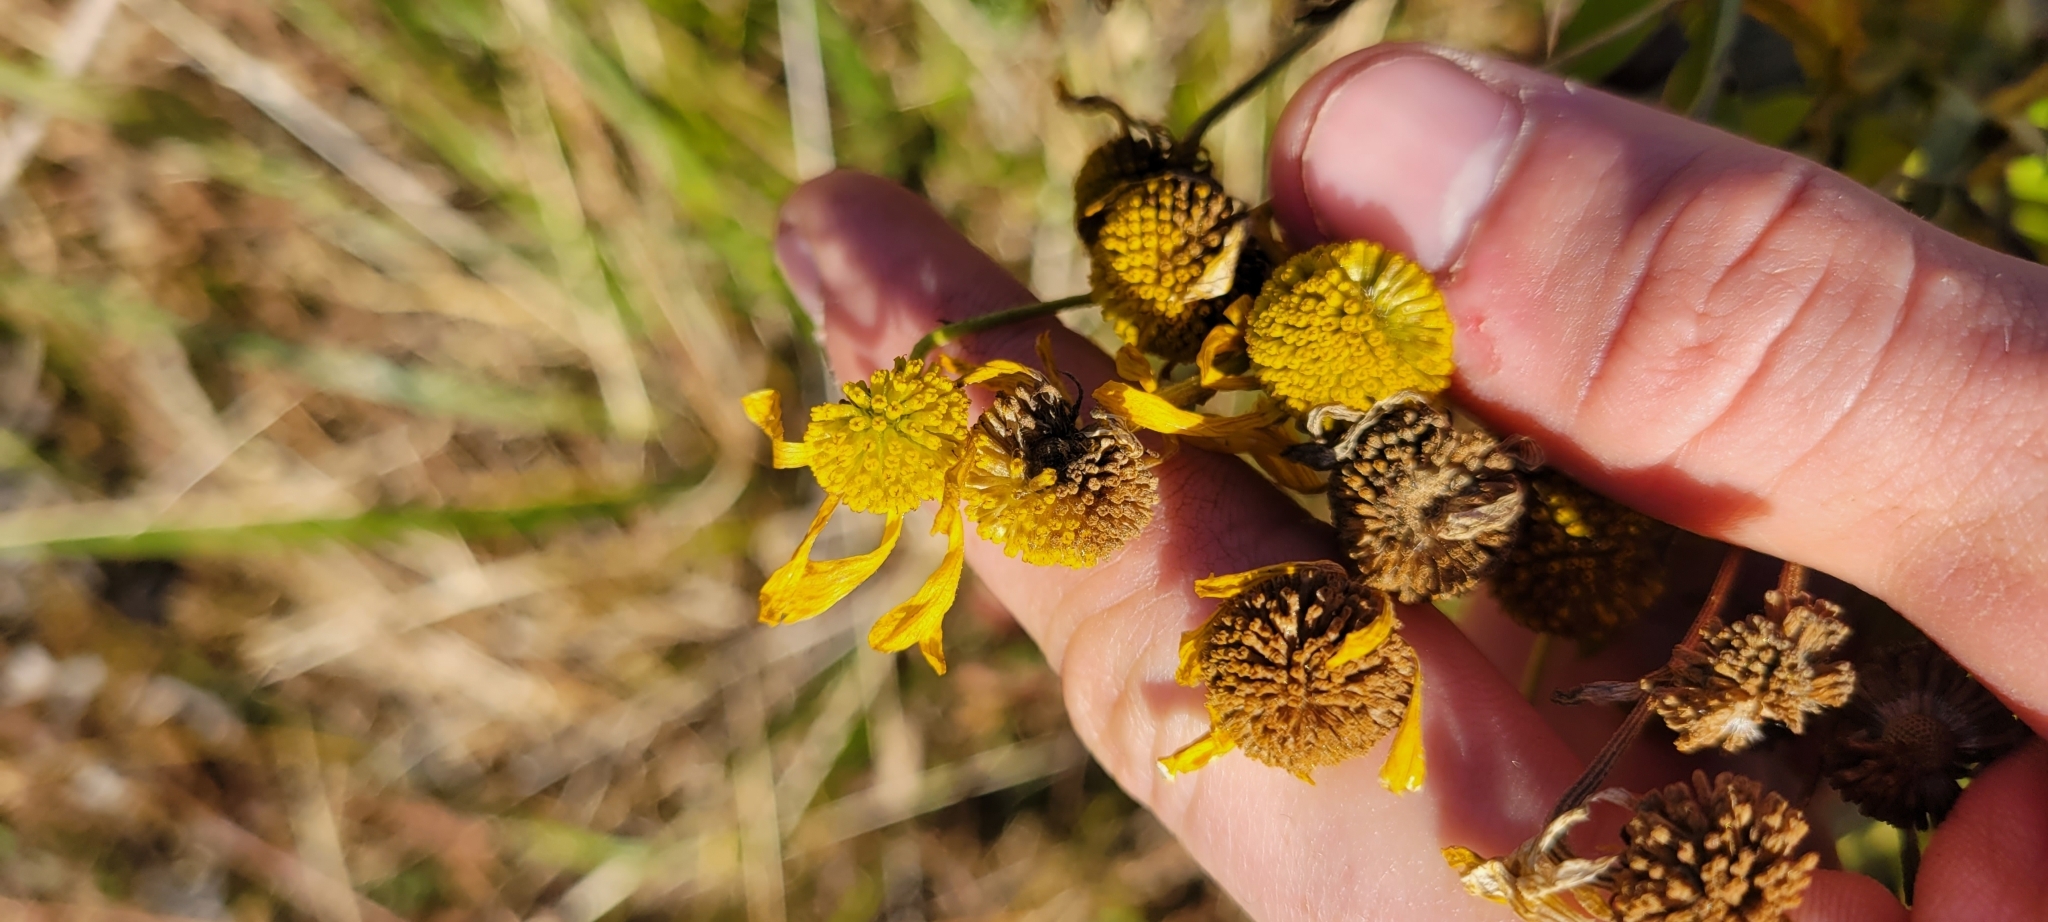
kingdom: Plantae
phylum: Tracheophyta
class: Magnoliopsida
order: Asterales
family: Asteraceae
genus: Helenium
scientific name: Helenium autumnale
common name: Sneezeweed
